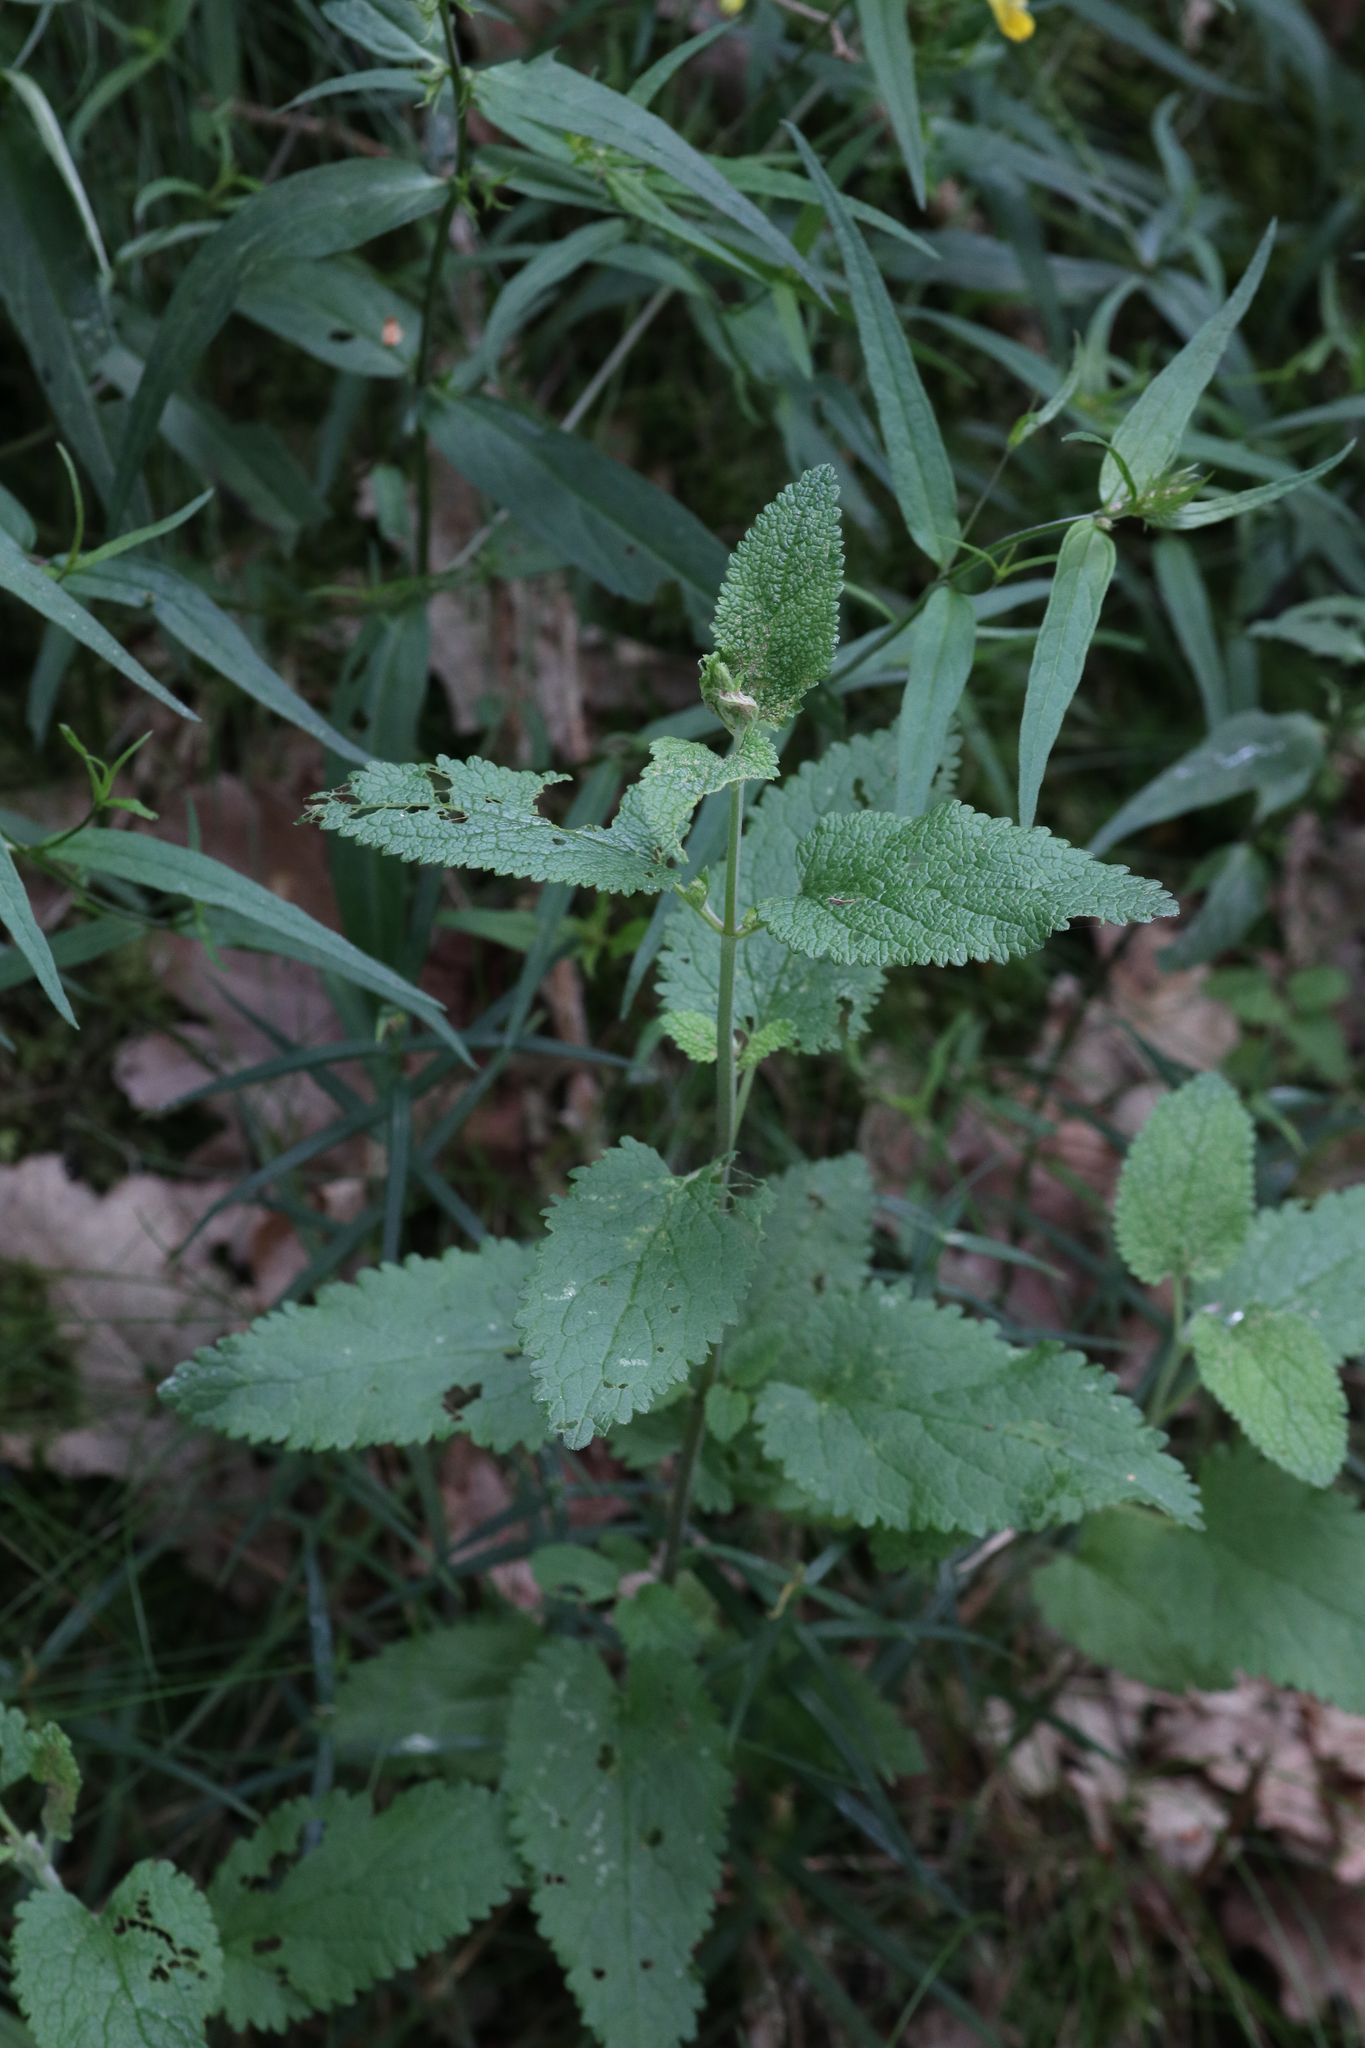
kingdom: Plantae
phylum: Tracheophyta
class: Magnoliopsida
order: Lamiales
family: Lamiaceae
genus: Teucrium
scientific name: Teucrium scorodonia
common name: Woodland germander
